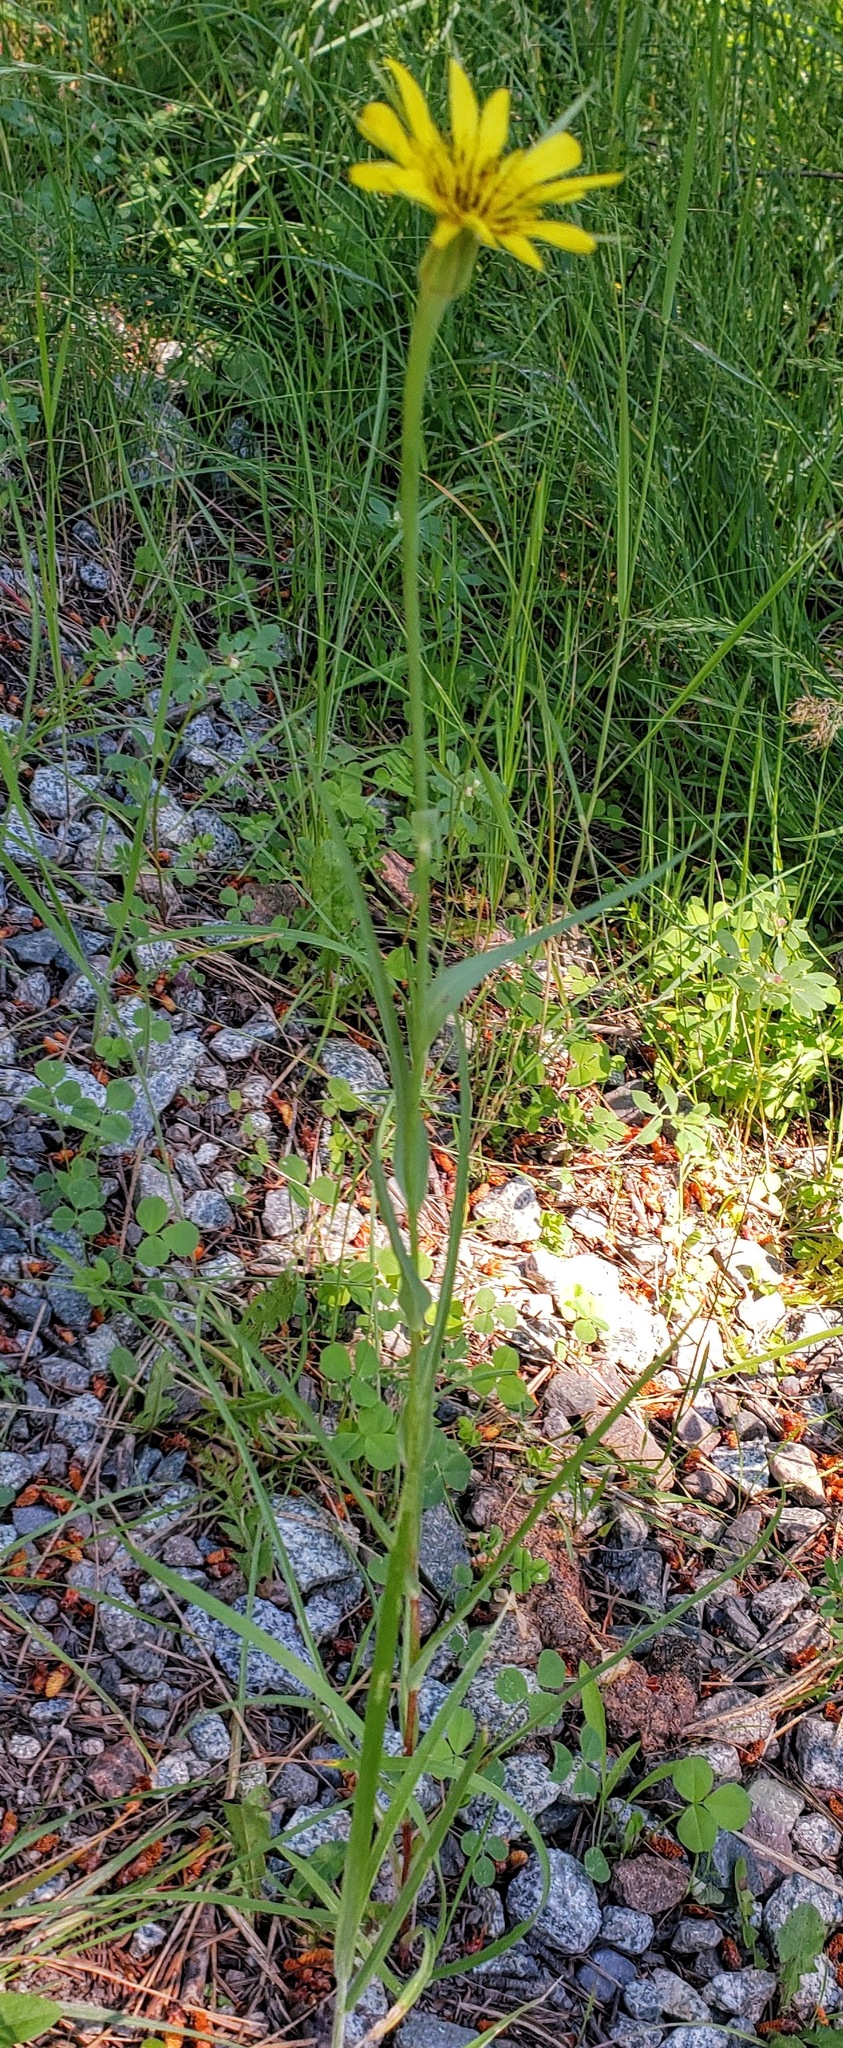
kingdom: Plantae
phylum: Tracheophyta
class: Magnoliopsida
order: Asterales
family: Asteraceae
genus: Tragopogon
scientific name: Tragopogon dubius
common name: Yellow salsify
